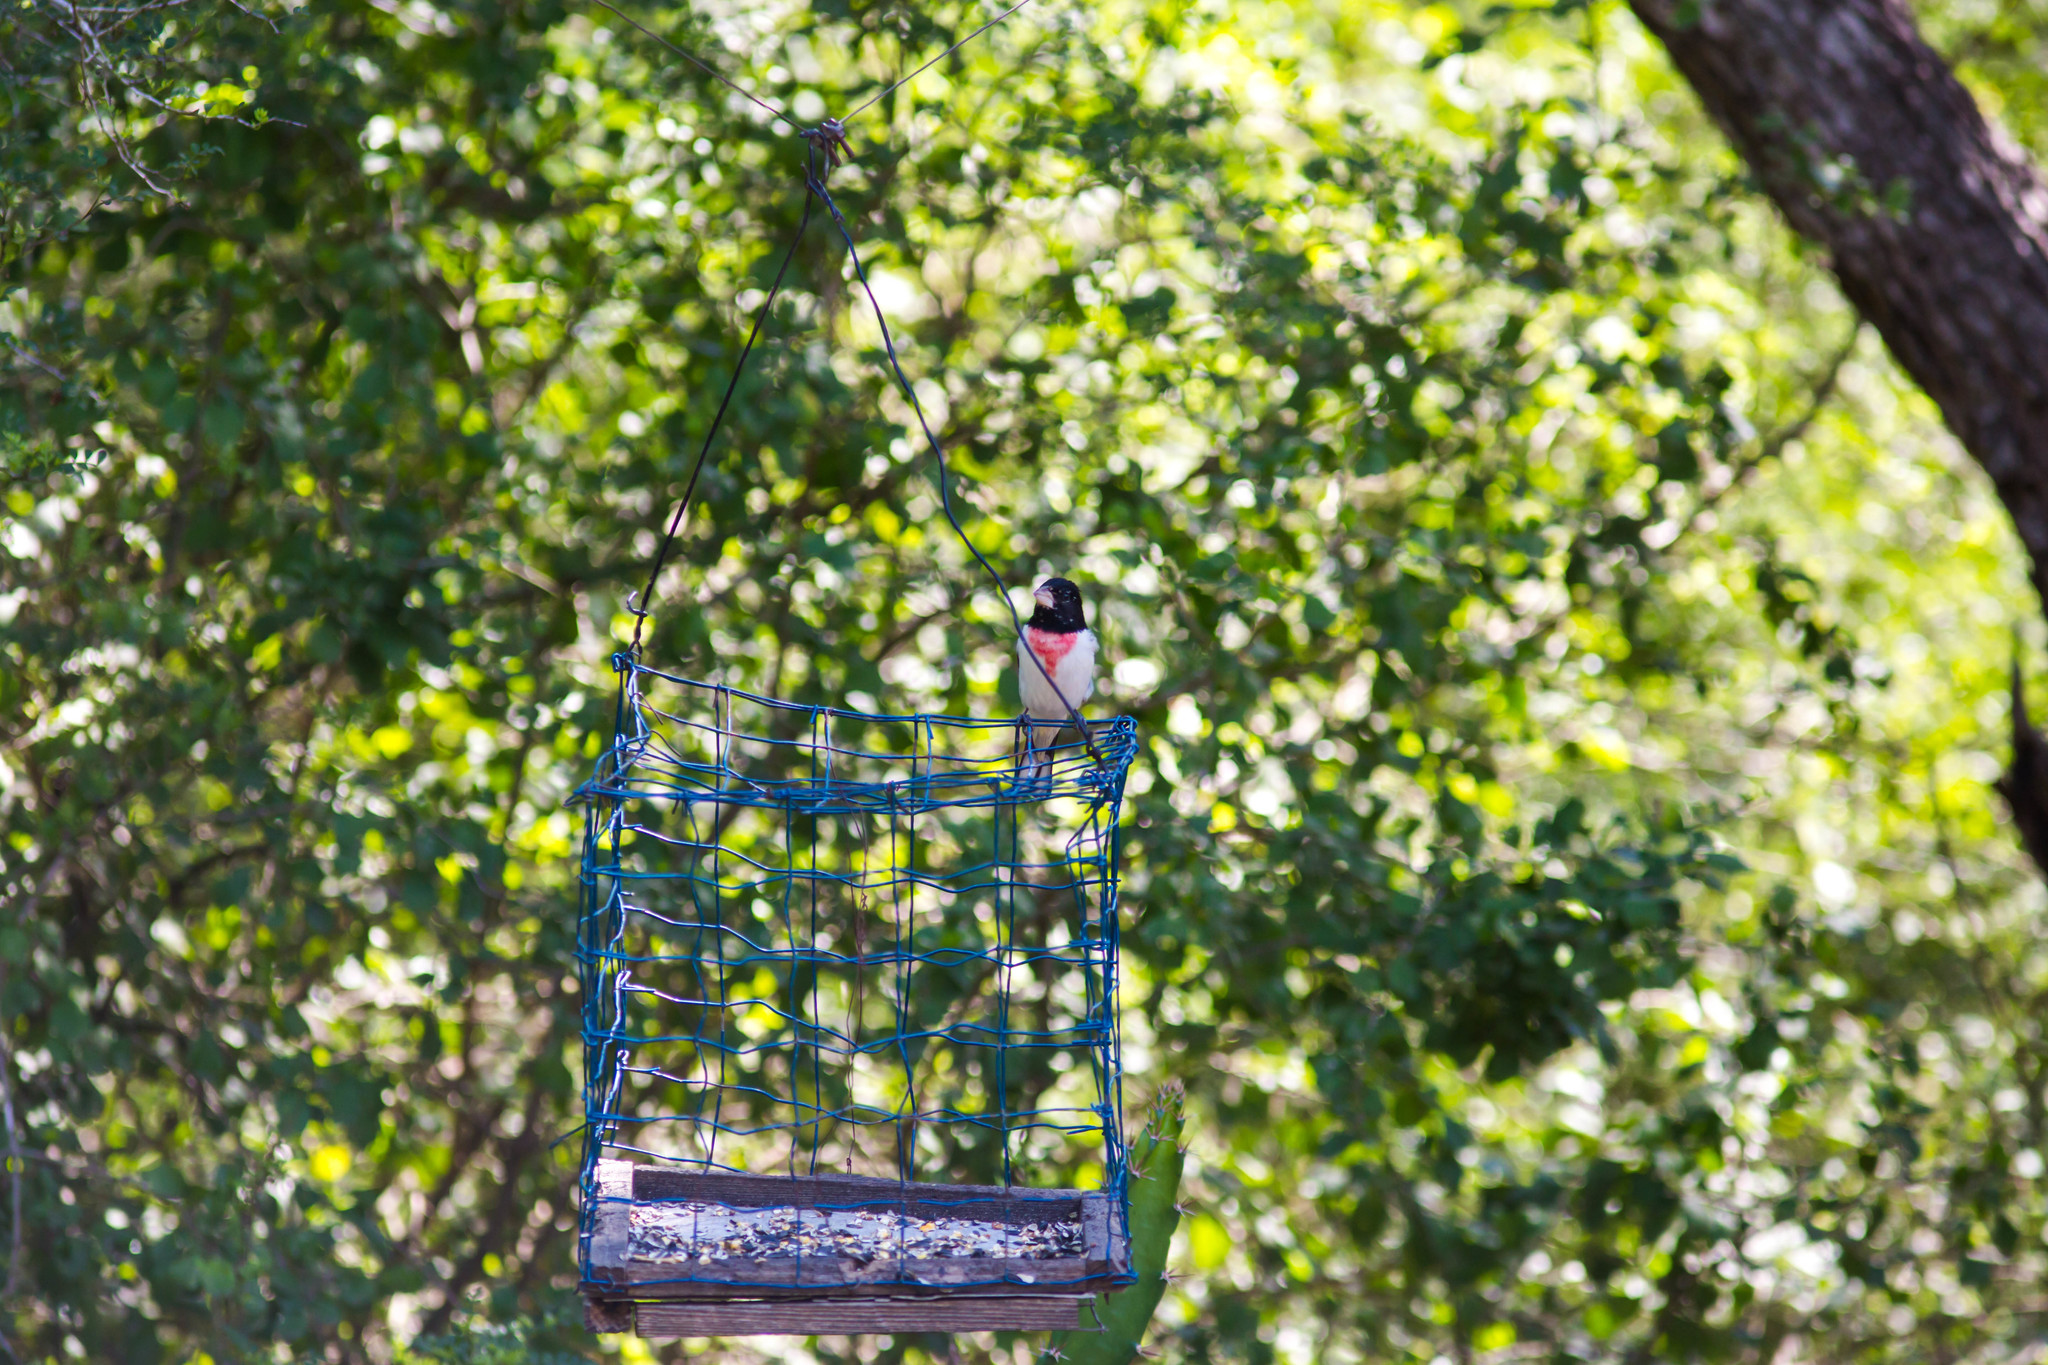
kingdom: Animalia
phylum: Chordata
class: Aves
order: Passeriformes
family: Cardinalidae
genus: Pheucticus
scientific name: Pheucticus ludovicianus
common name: Rose-breasted grosbeak
